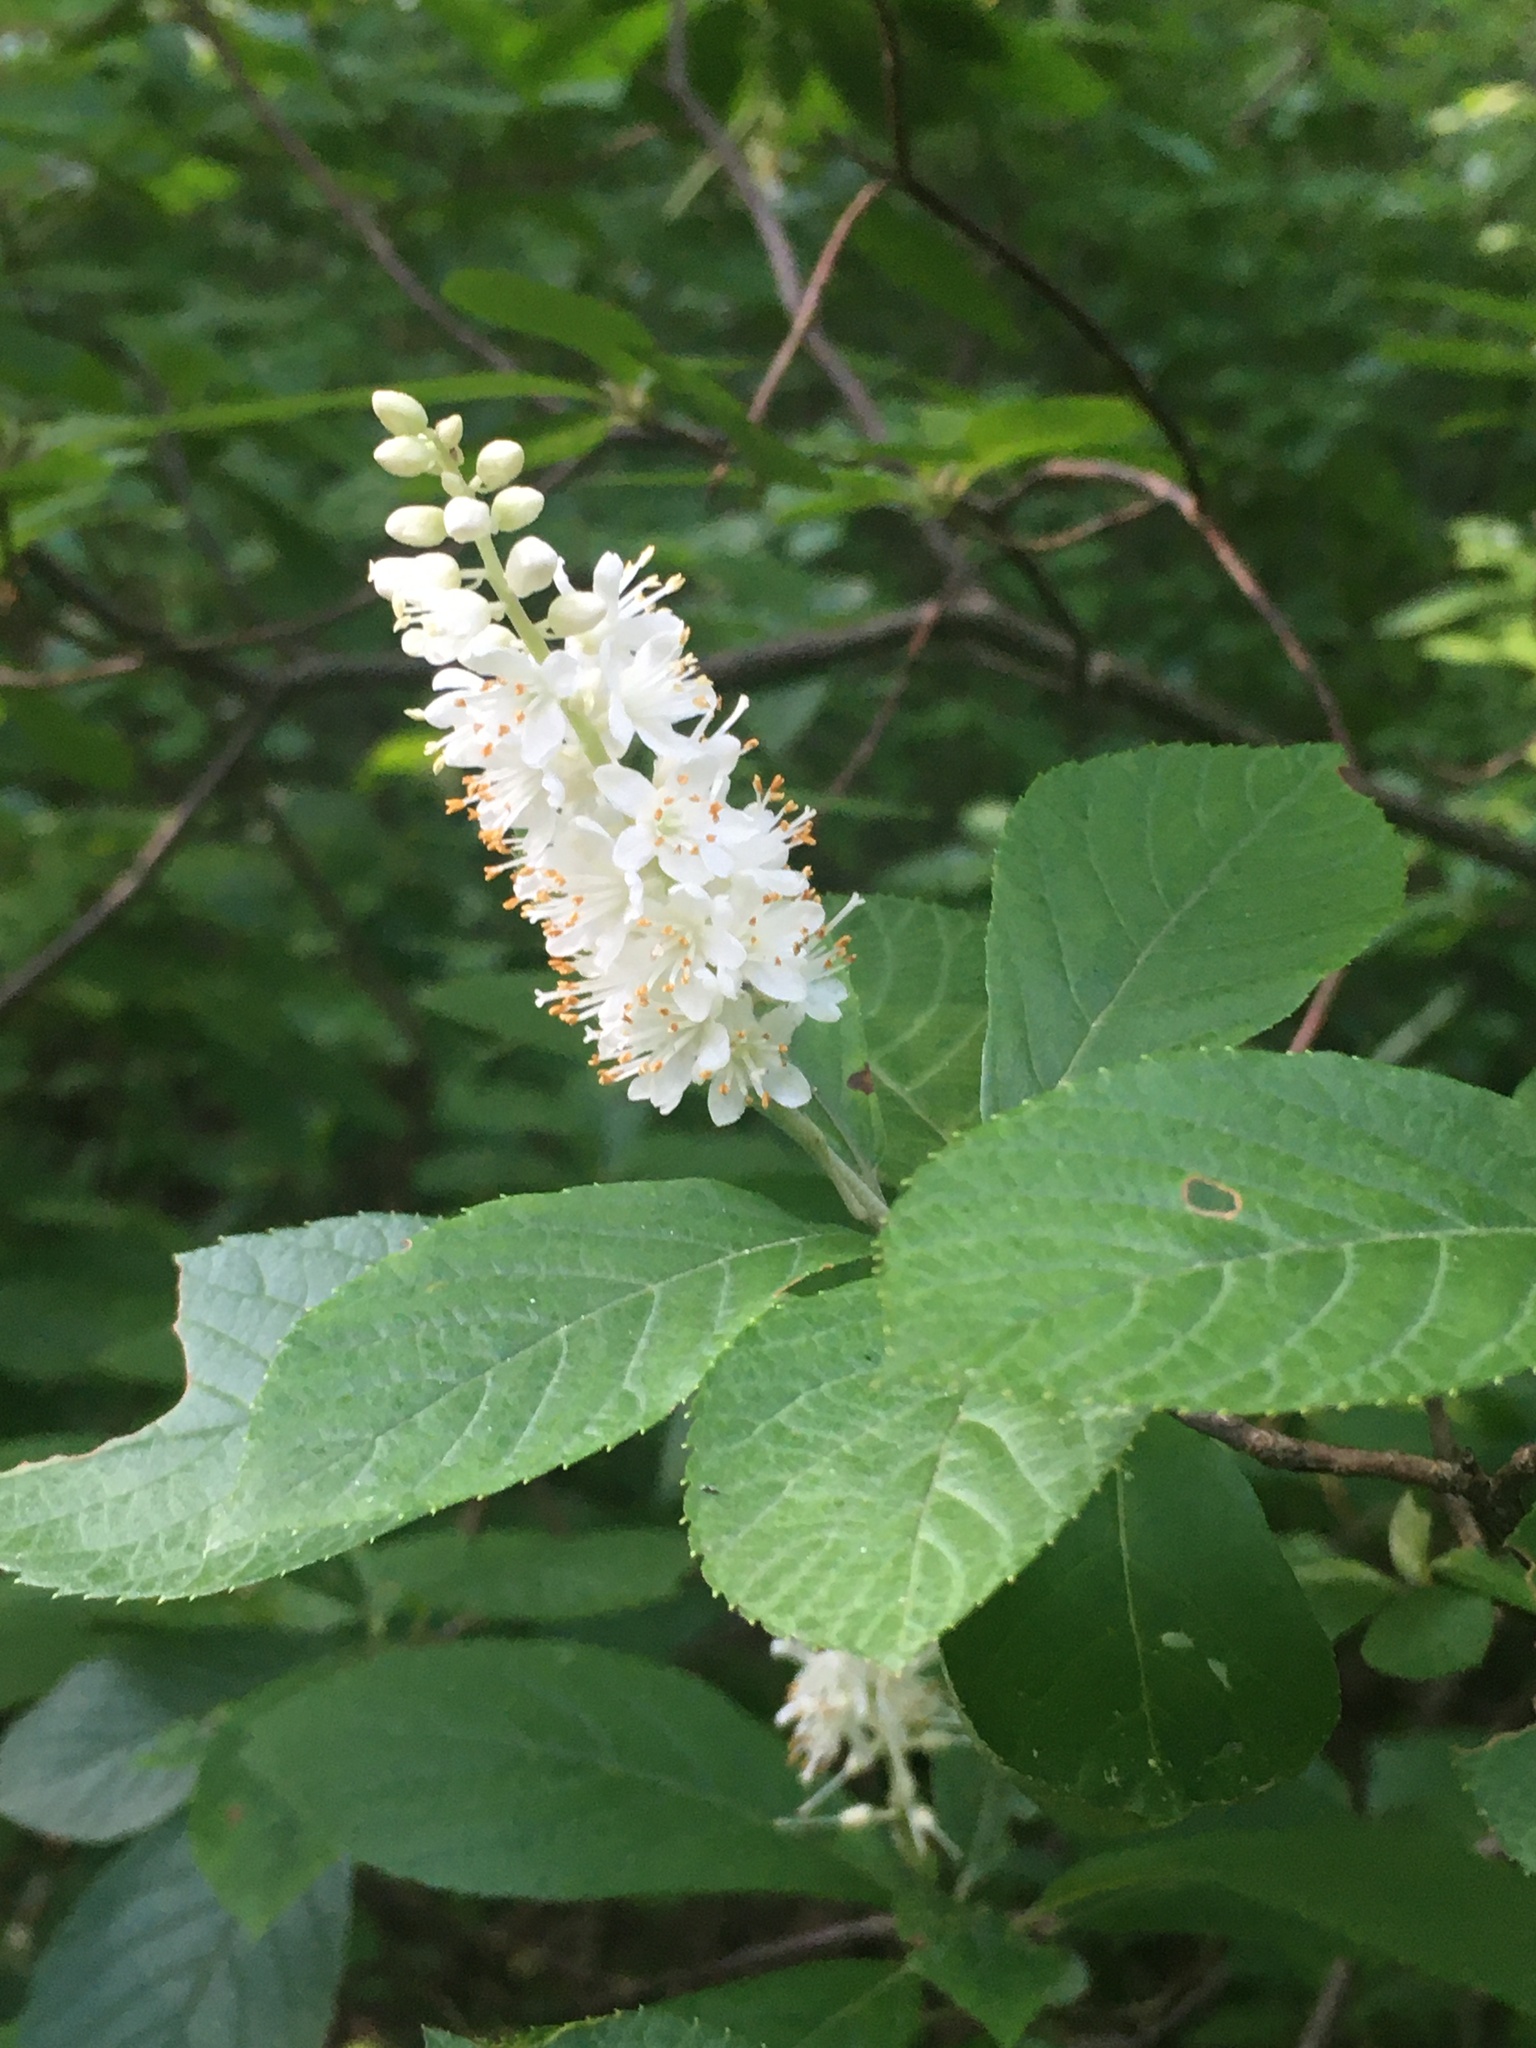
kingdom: Plantae
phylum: Tracheophyta
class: Magnoliopsida
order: Ericales
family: Clethraceae
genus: Clethra
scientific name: Clethra alnifolia
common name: Sweet pepperbush
